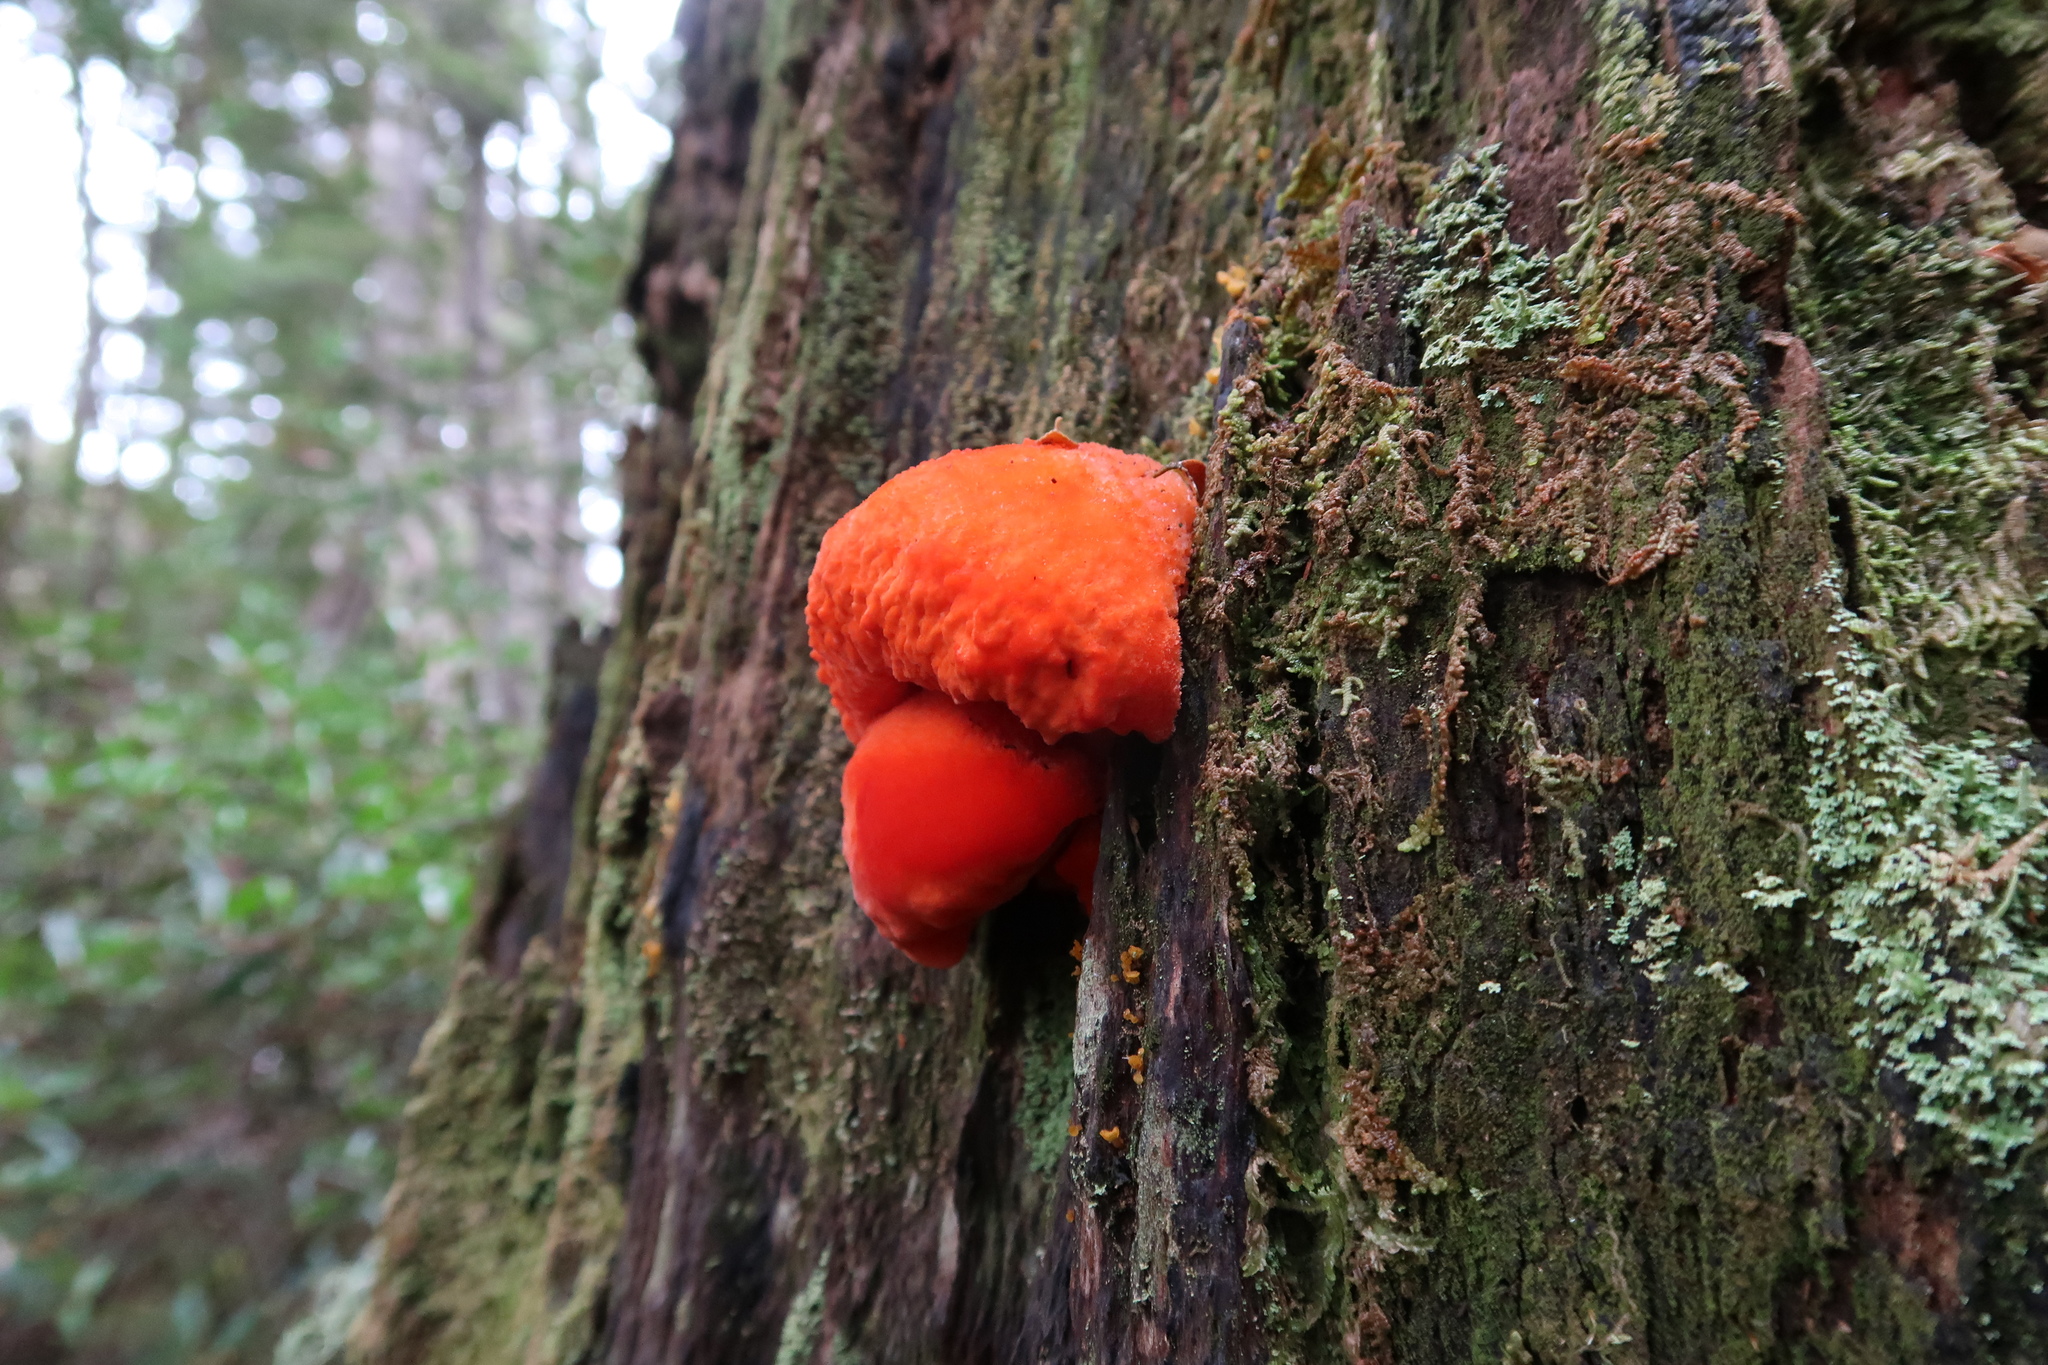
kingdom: Fungi
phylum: Basidiomycota
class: Agaricomycetes
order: Polyporales
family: Incrustoporiaceae
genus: Tyromyces
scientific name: Tyromyces pulcherrimus
